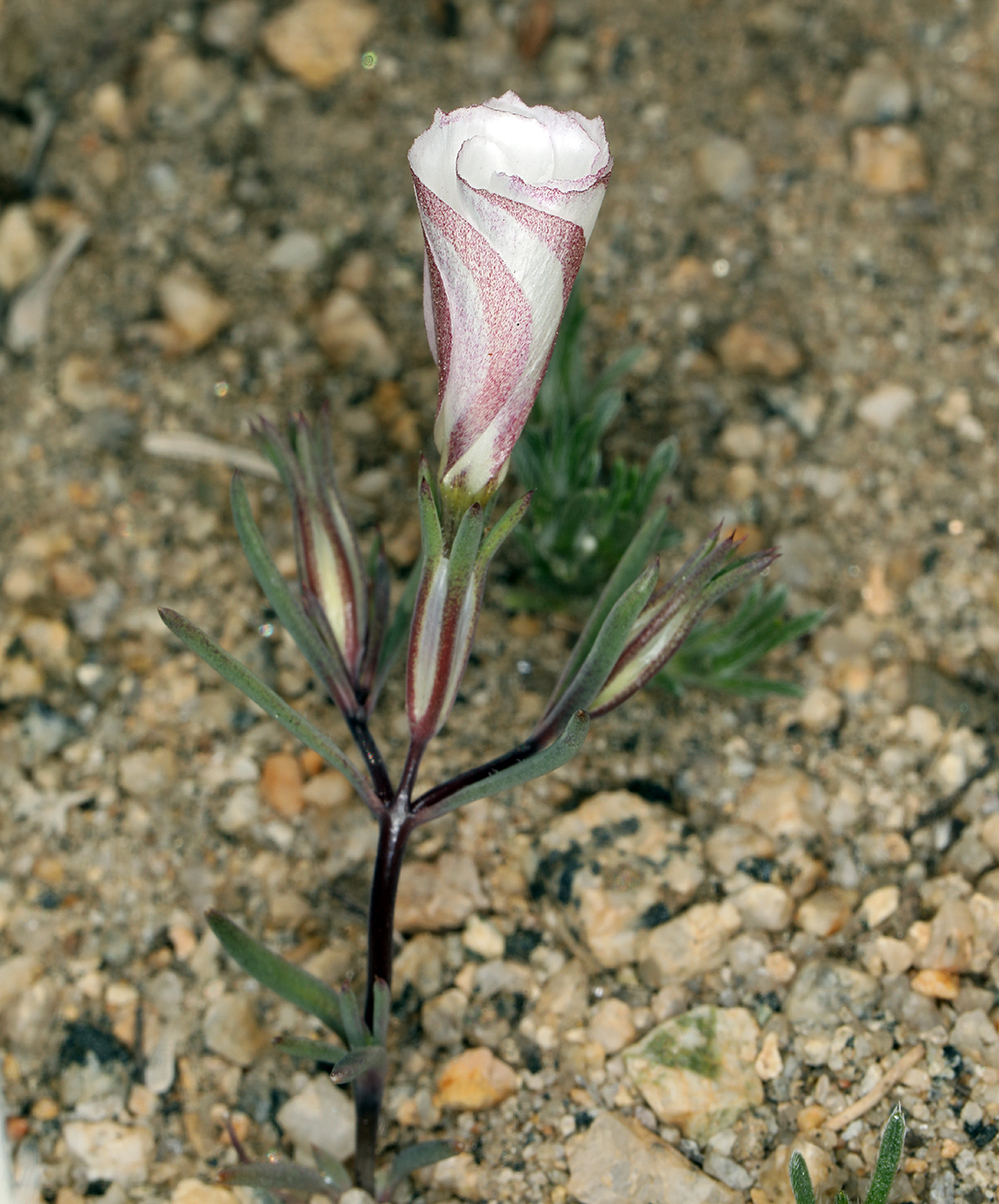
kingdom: Plantae
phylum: Tracheophyta
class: Magnoliopsida
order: Ericales
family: Polemoniaceae
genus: Linanthus
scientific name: Linanthus dichotomus
